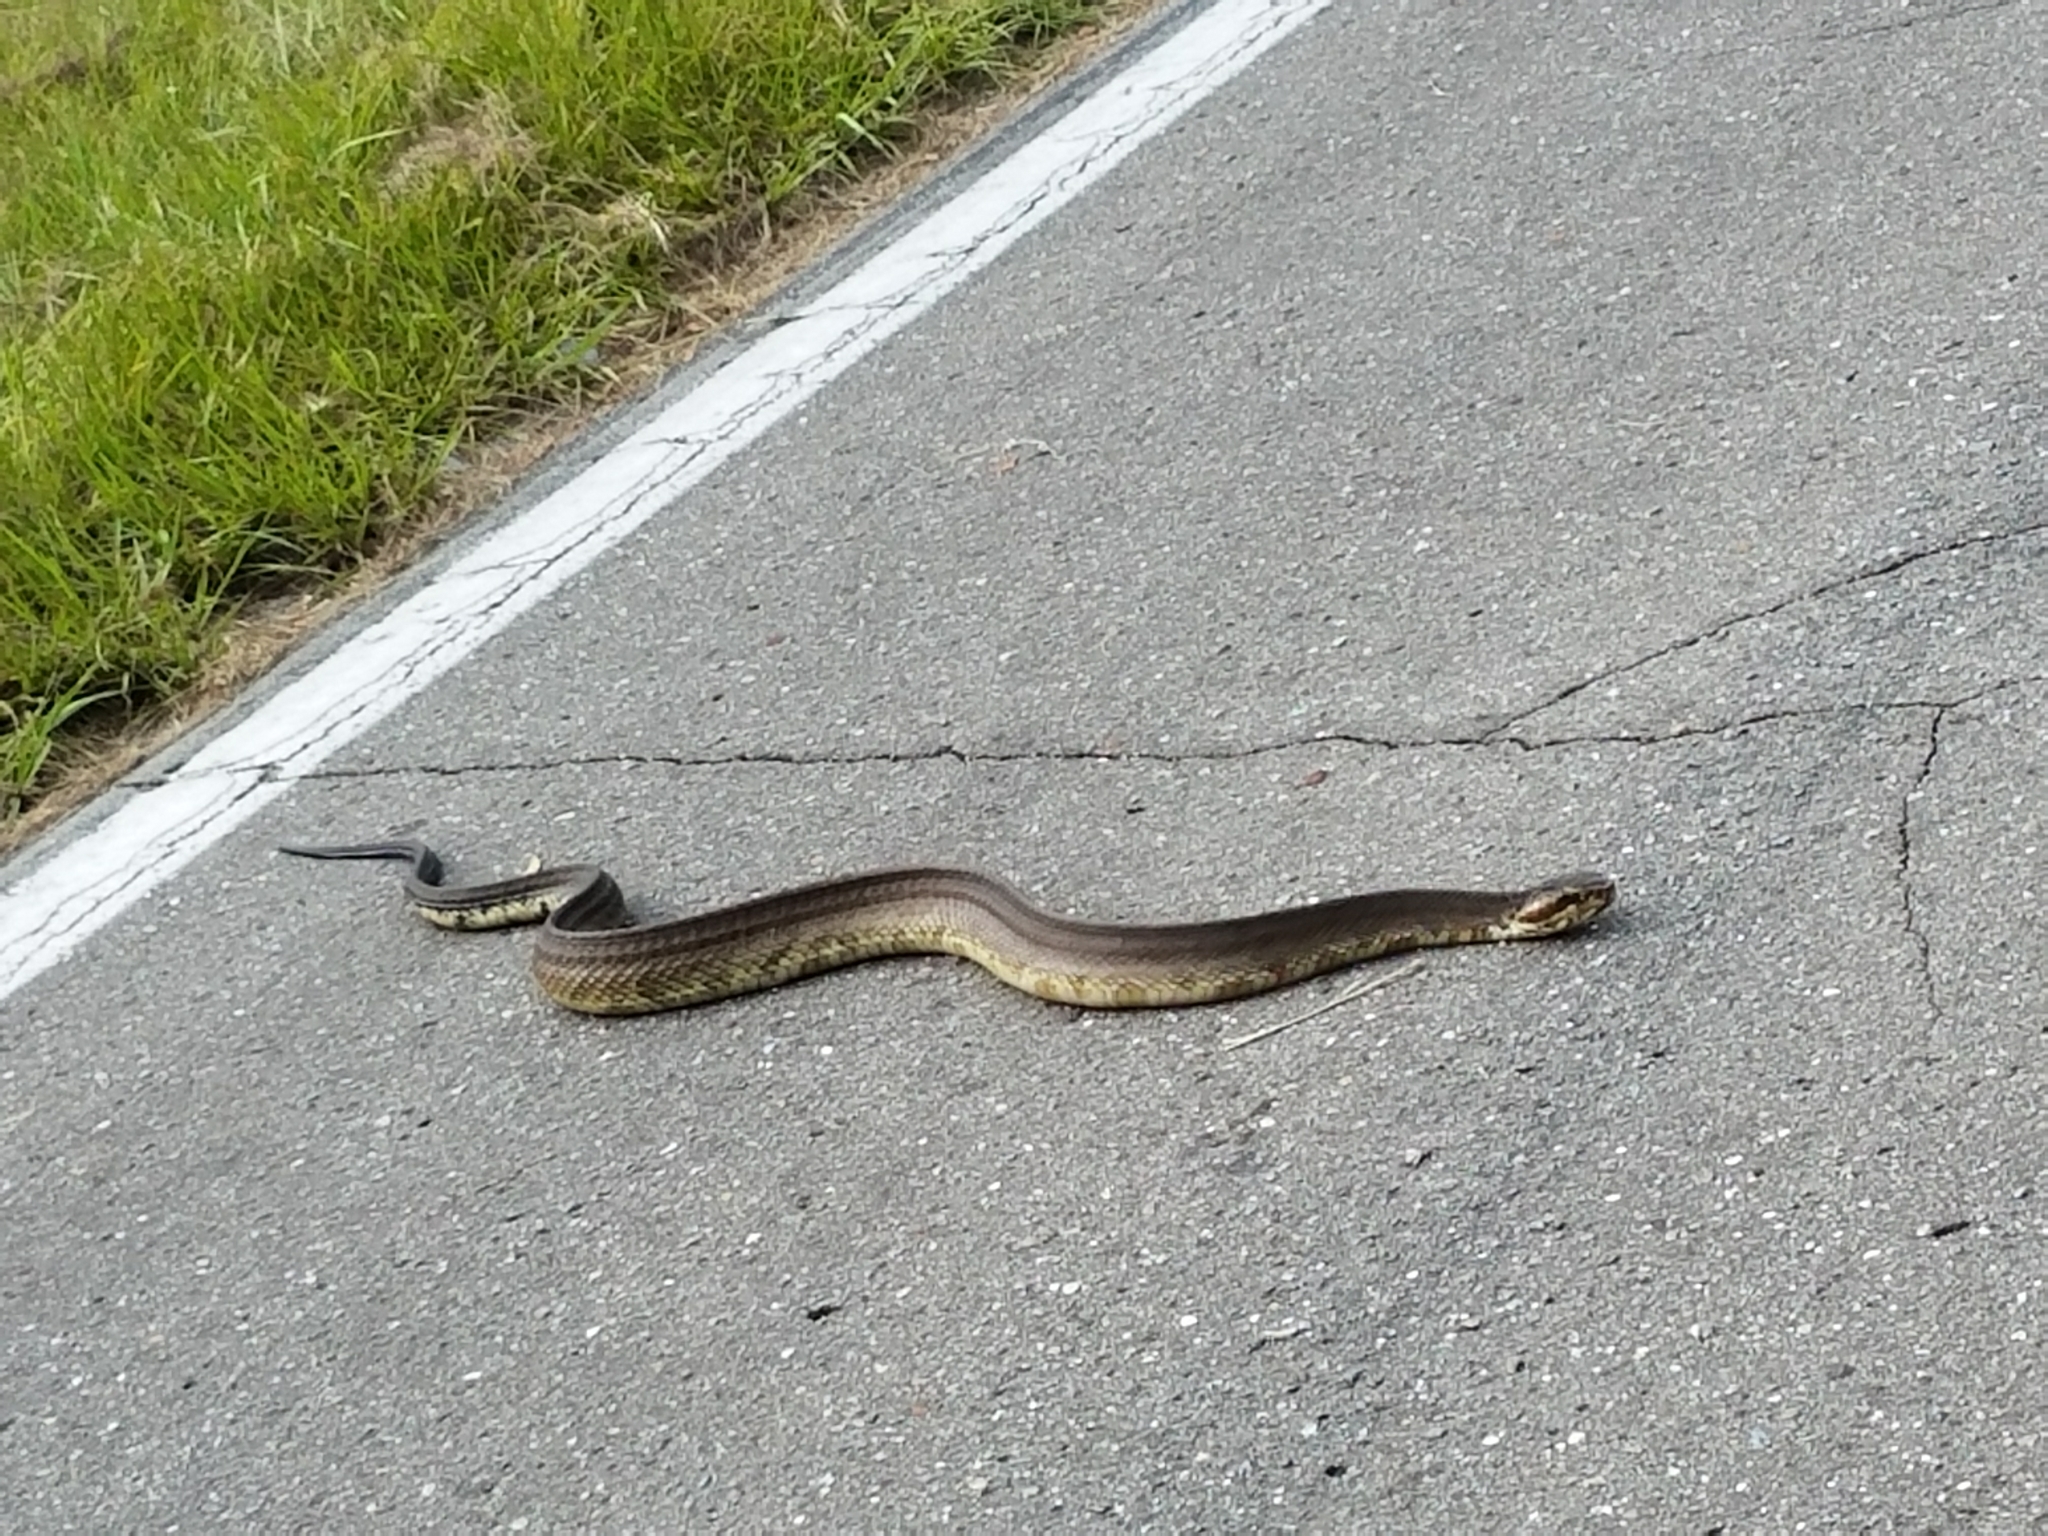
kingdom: Animalia
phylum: Chordata
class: Squamata
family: Viperidae
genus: Agkistrodon
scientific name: Agkistrodon conanti
